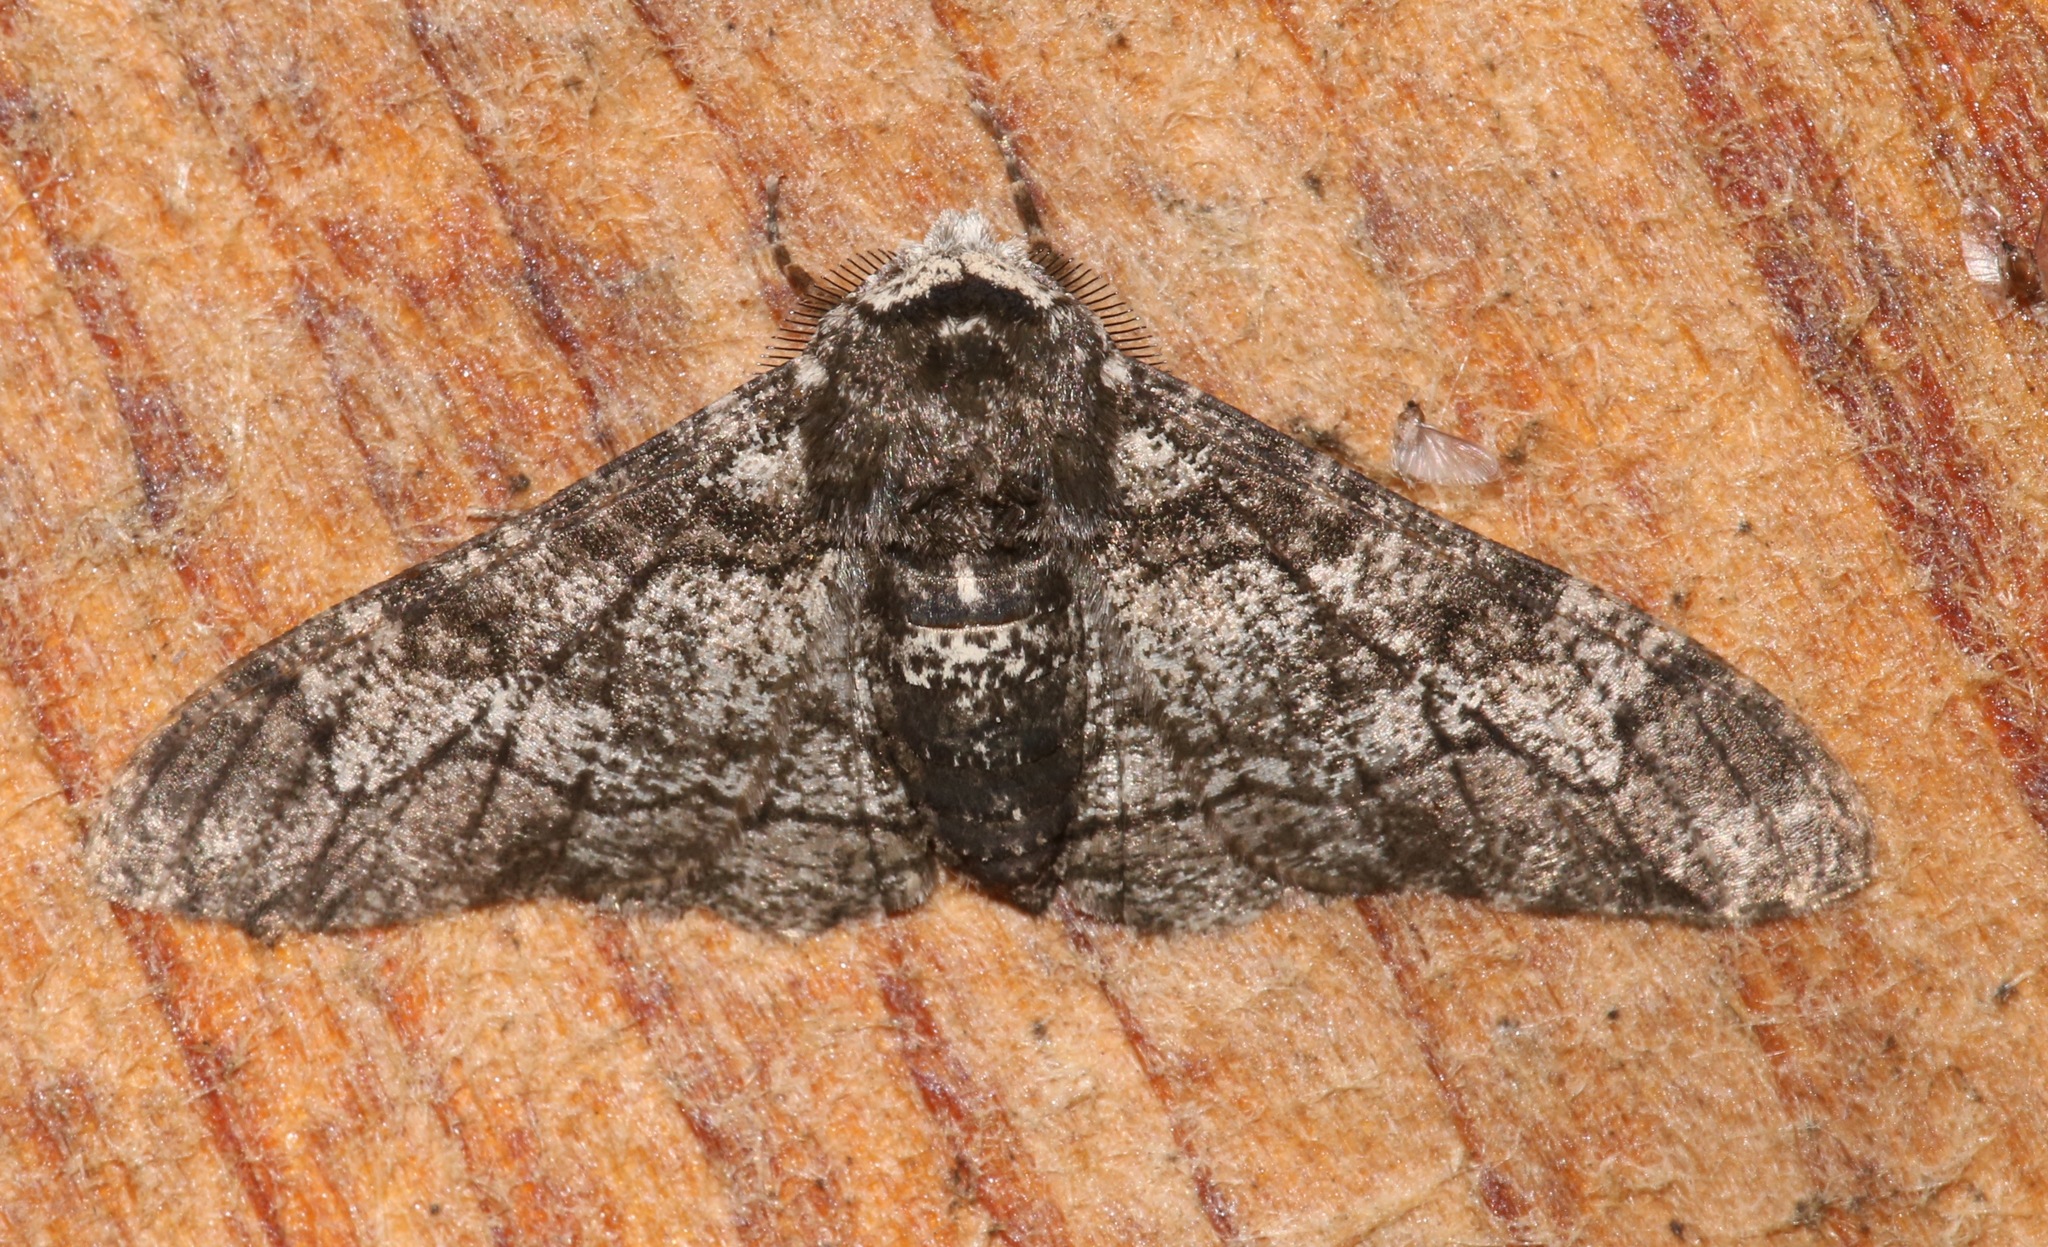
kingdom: Animalia
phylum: Arthropoda
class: Insecta
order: Lepidoptera
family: Geometridae
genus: Biston
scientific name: Biston betularia
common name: Peppered moth
